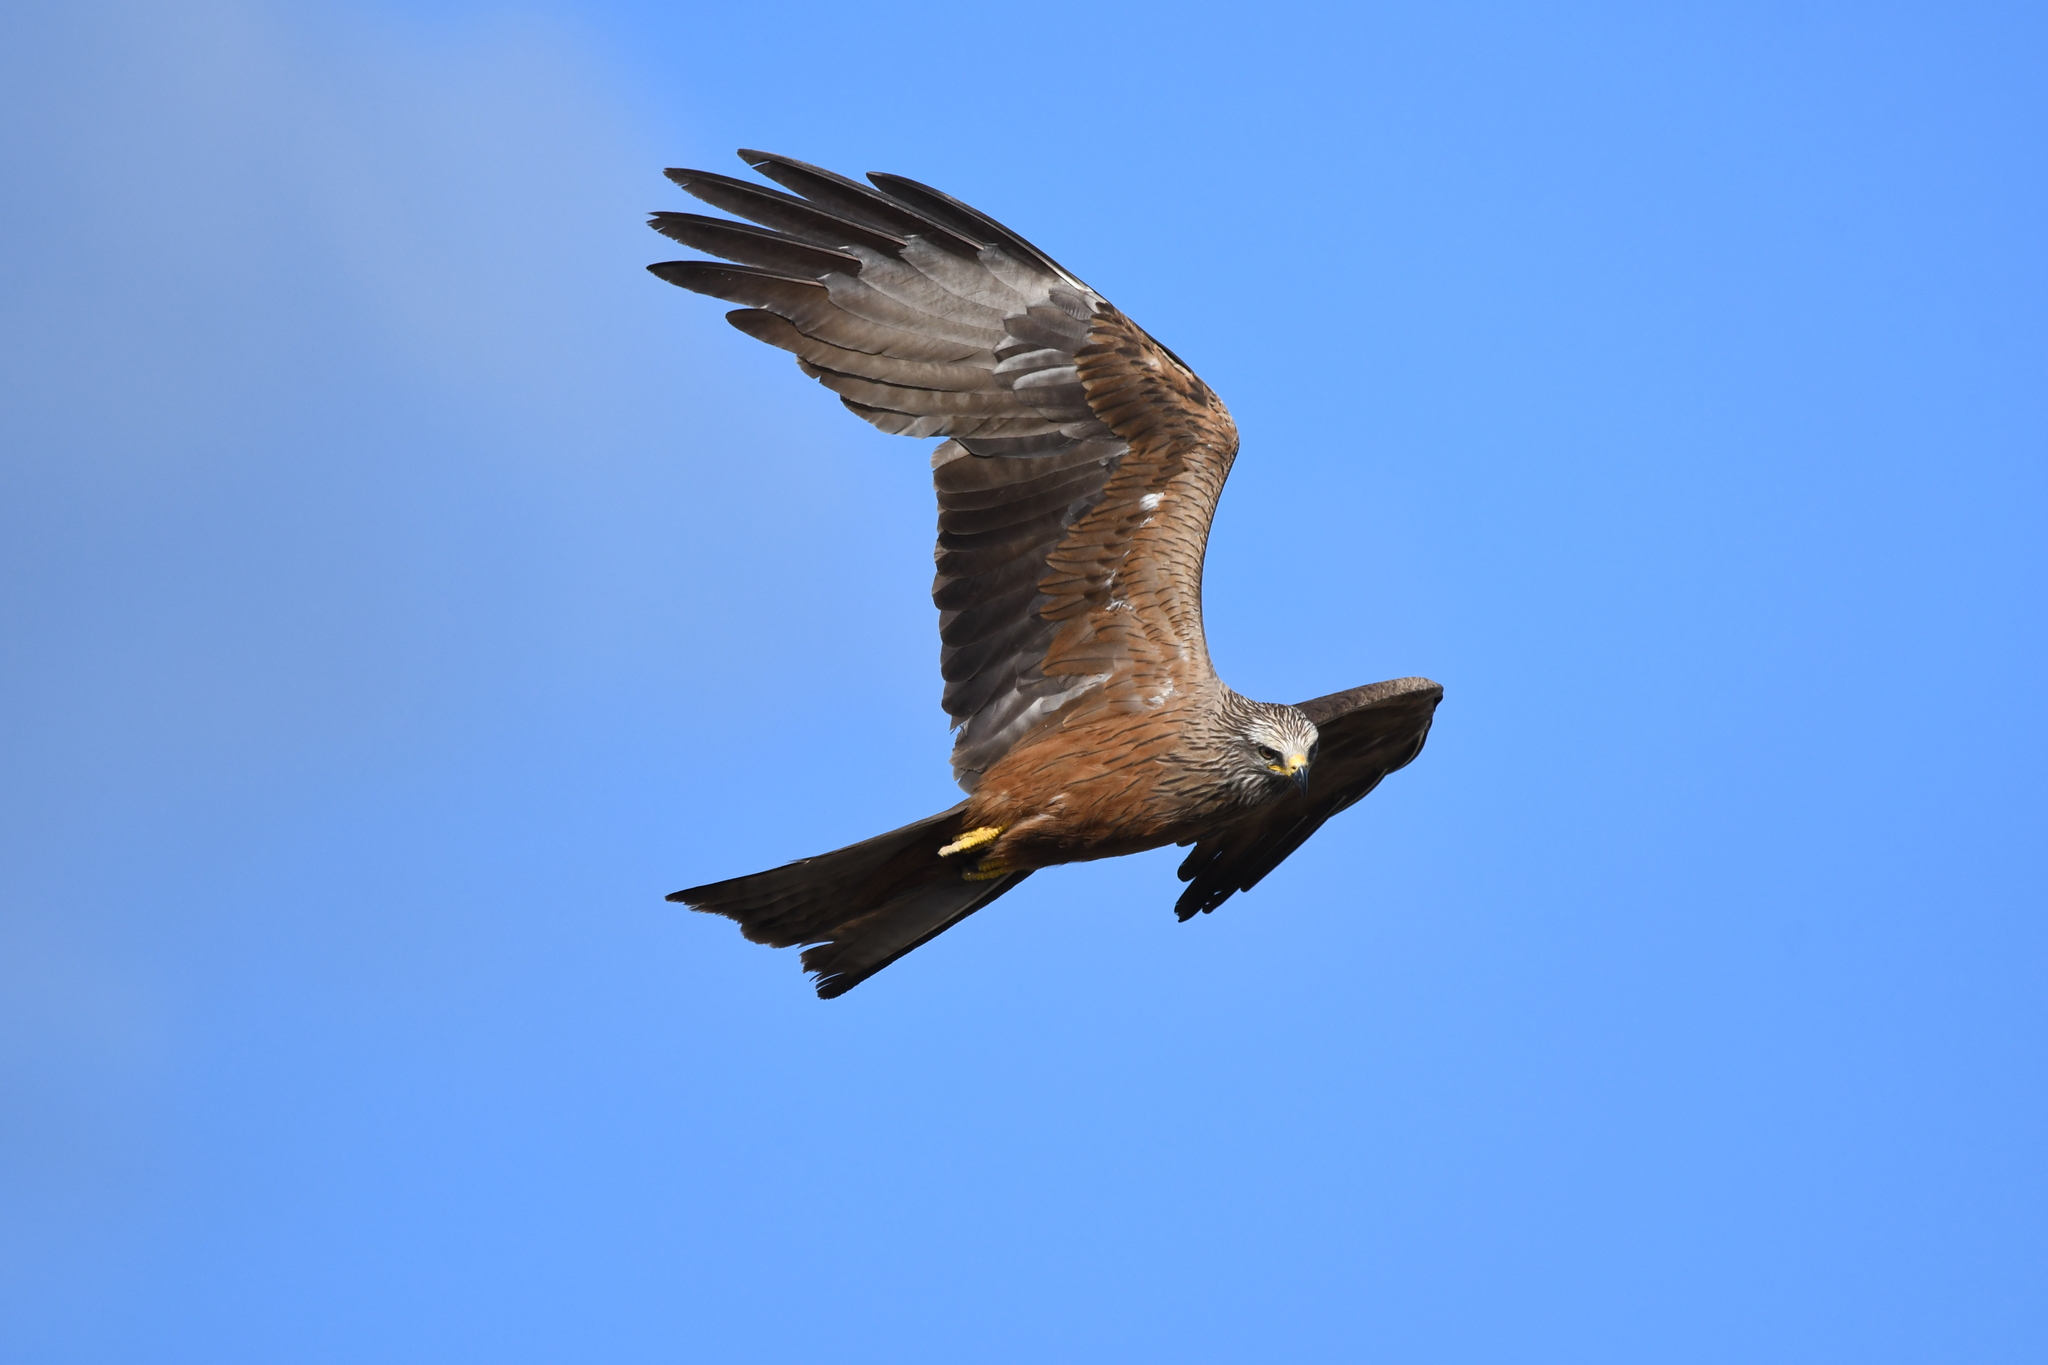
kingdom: Animalia
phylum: Chordata
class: Aves
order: Accipitriformes
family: Accipitridae
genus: Milvus
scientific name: Milvus migrans
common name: Black kite
